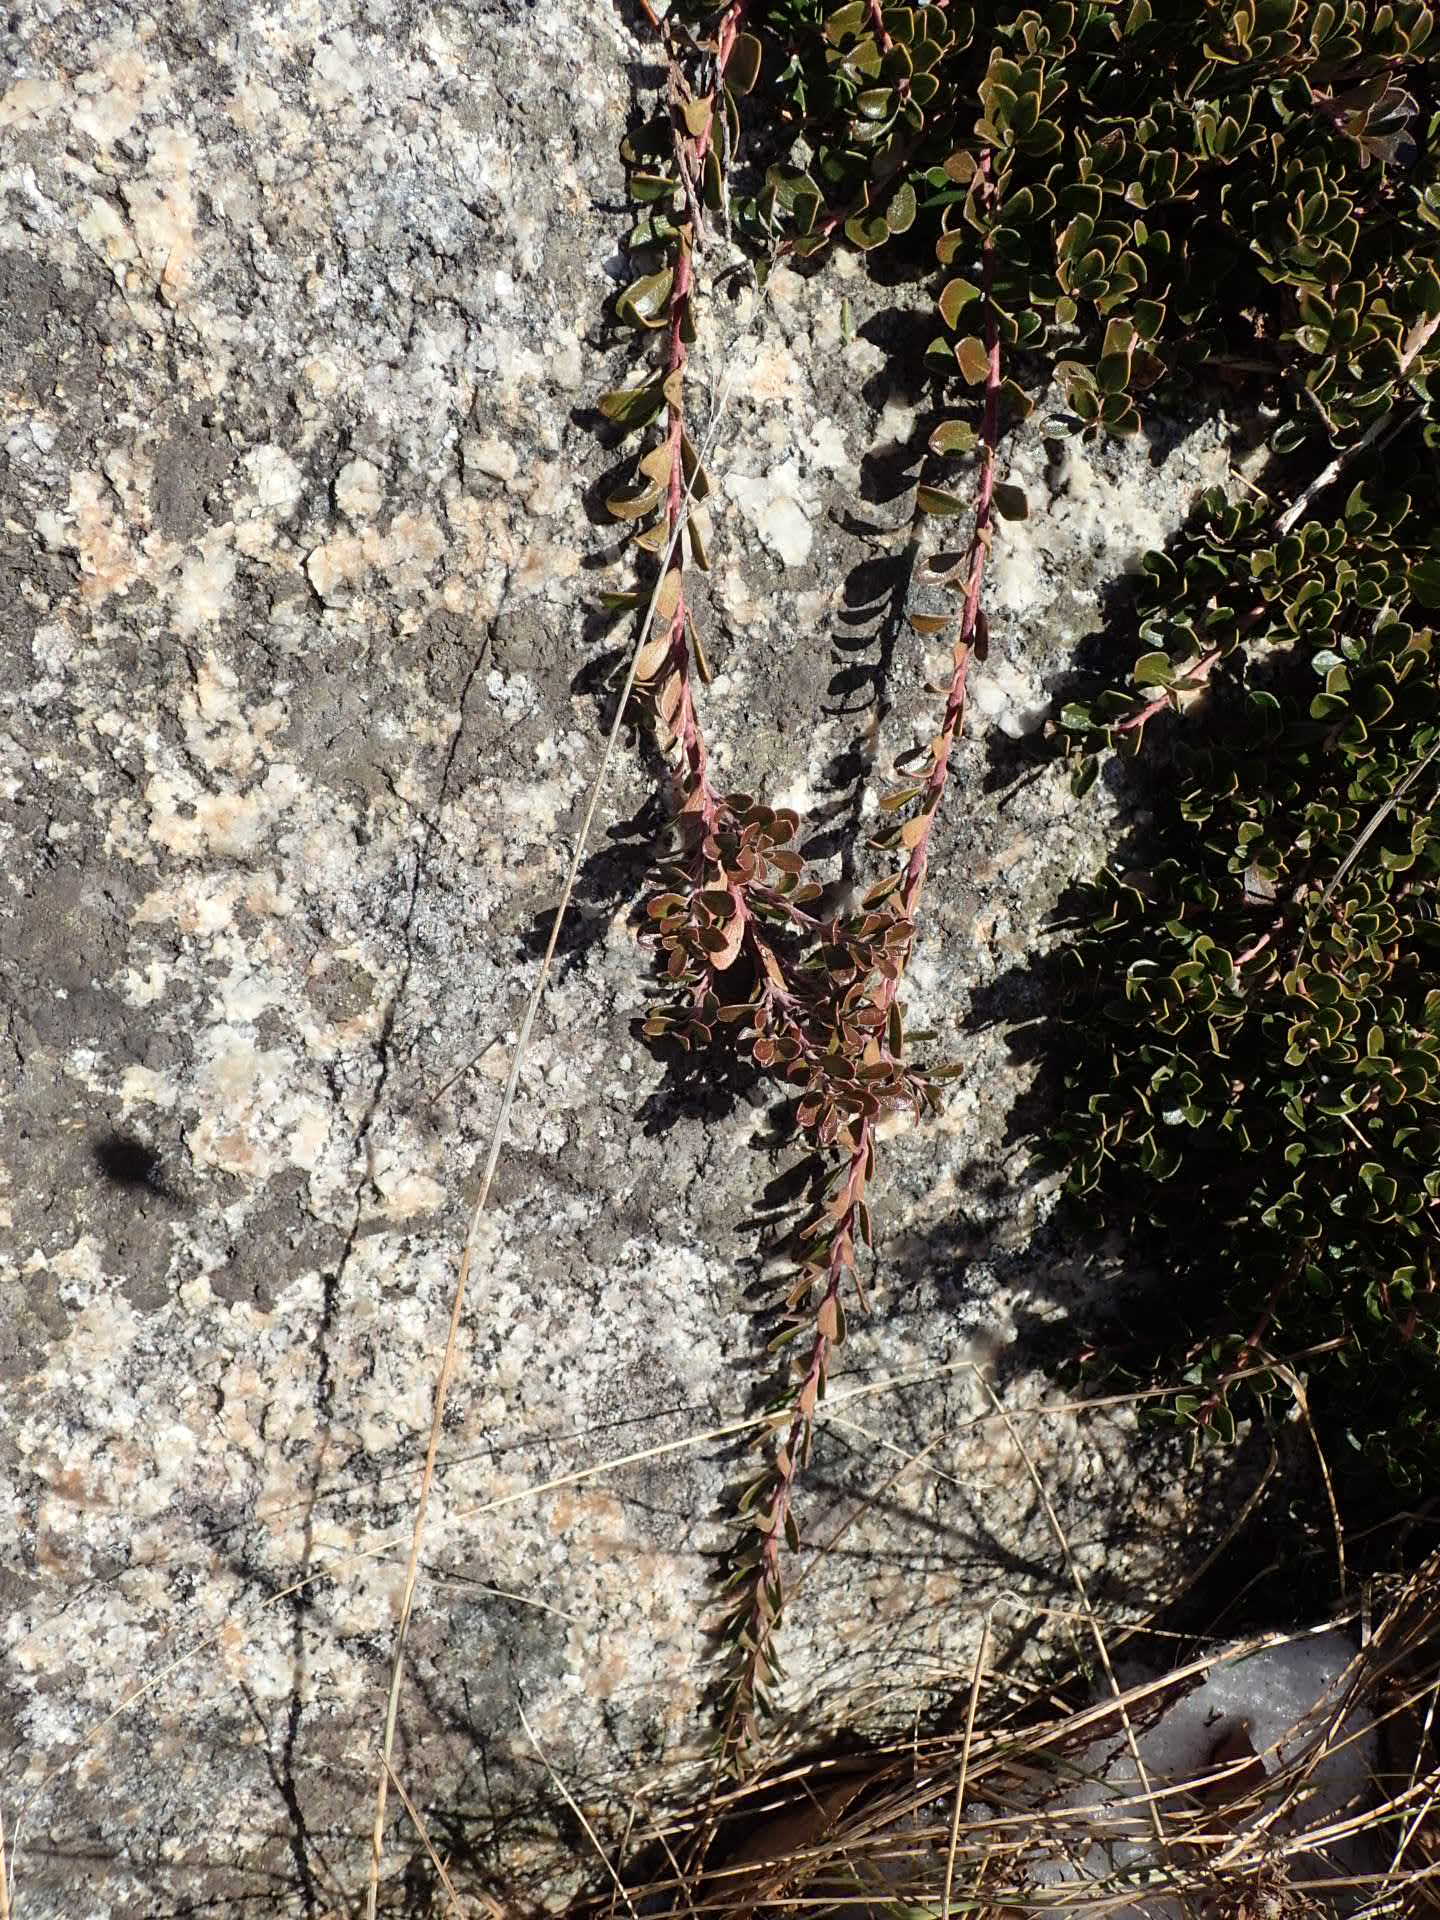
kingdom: Plantae
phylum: Tracheophyta
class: Magnoliopsida
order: Ericales
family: Ericaceae
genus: Arctostaphylos
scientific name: Arctostaphylos uva-ursi
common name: Bearberry
